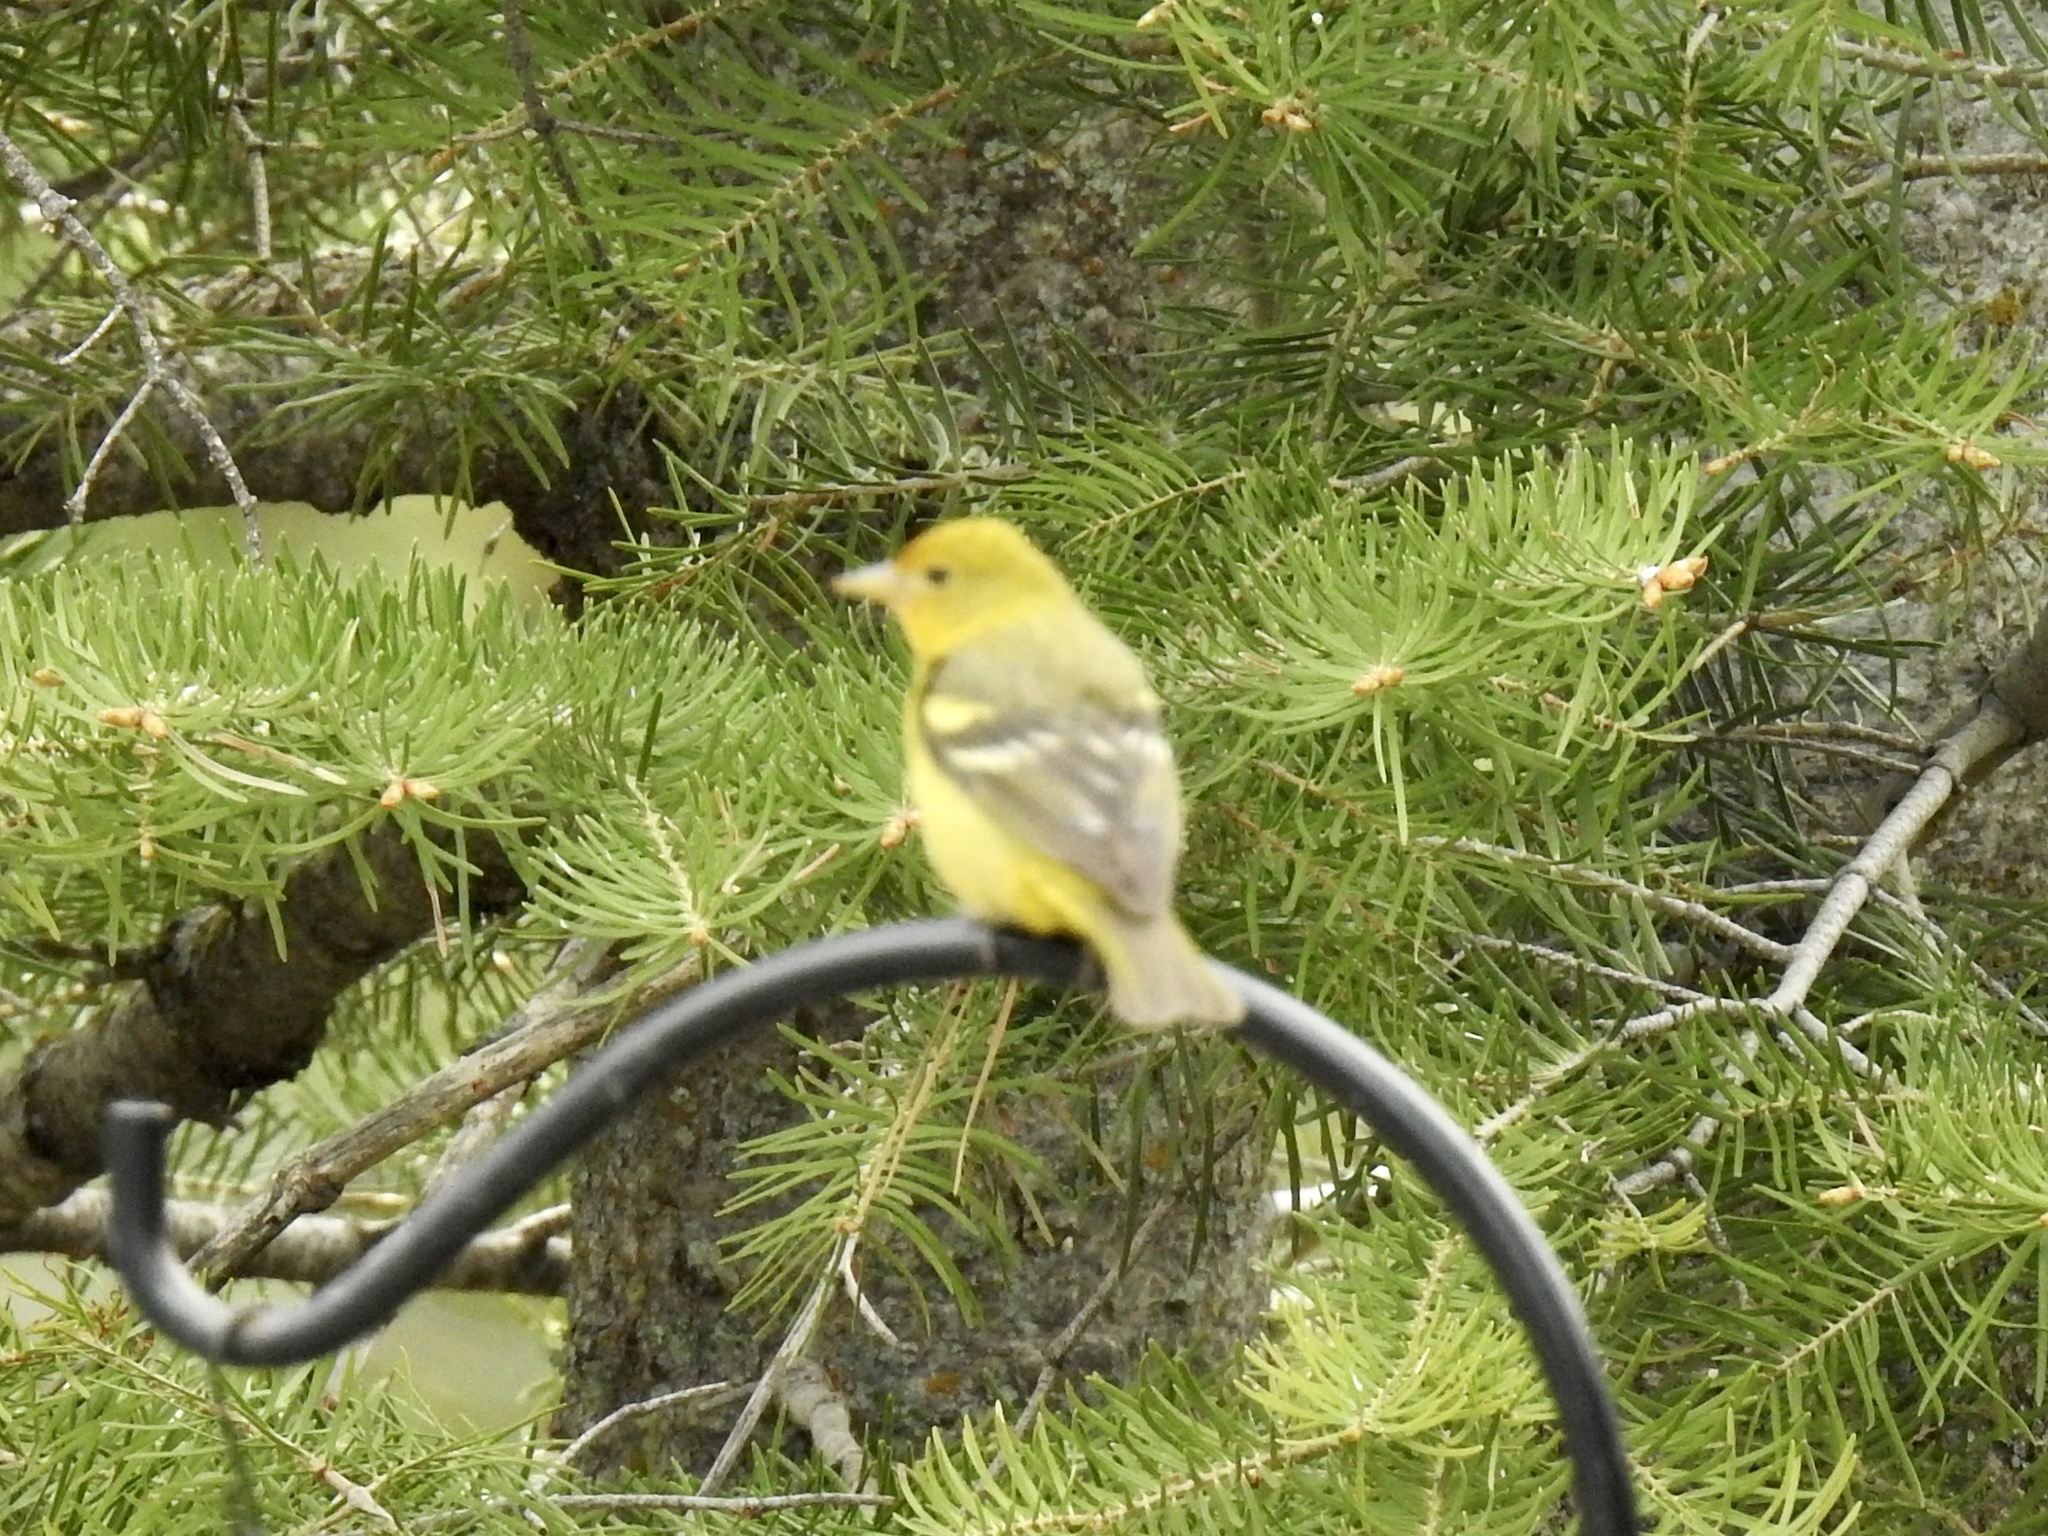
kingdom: Animalia
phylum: Chordata
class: Aves
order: Passeriformes
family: Cardinalidae
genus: Piranga
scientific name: Piranga ludoviciana
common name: Western tanager
